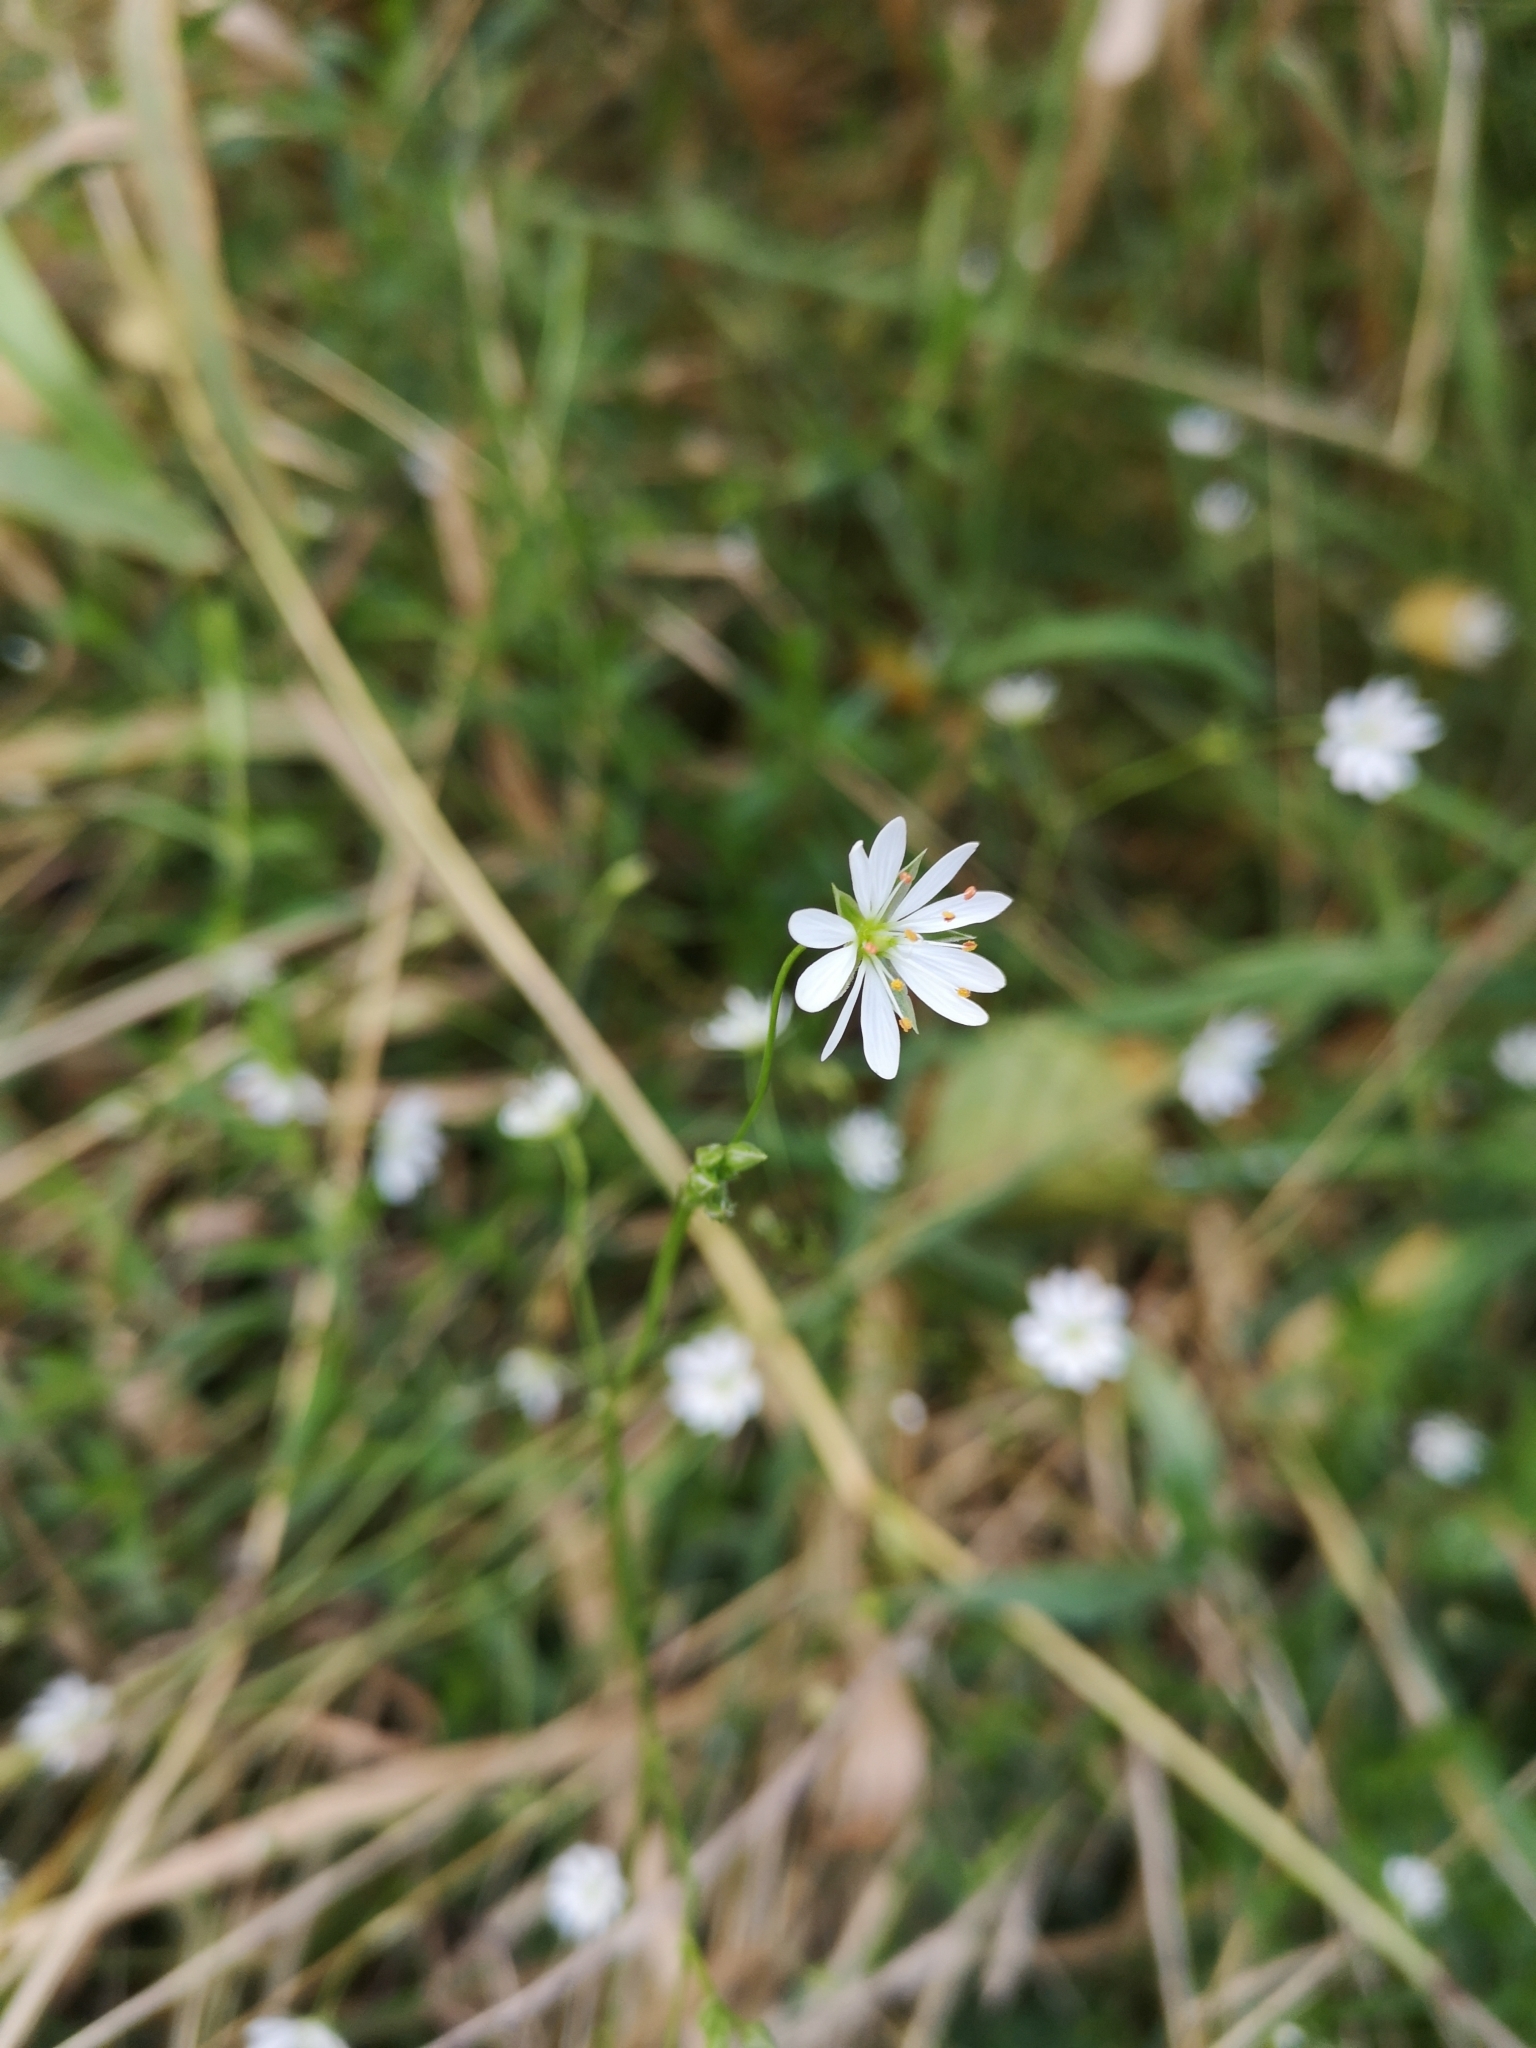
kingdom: Plantae
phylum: Tracheophyta
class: Magnoliopsida
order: Caryophyllales
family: Caryophyllaceae
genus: Stellaria
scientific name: Stellaria graminea
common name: Grass-like starwort
